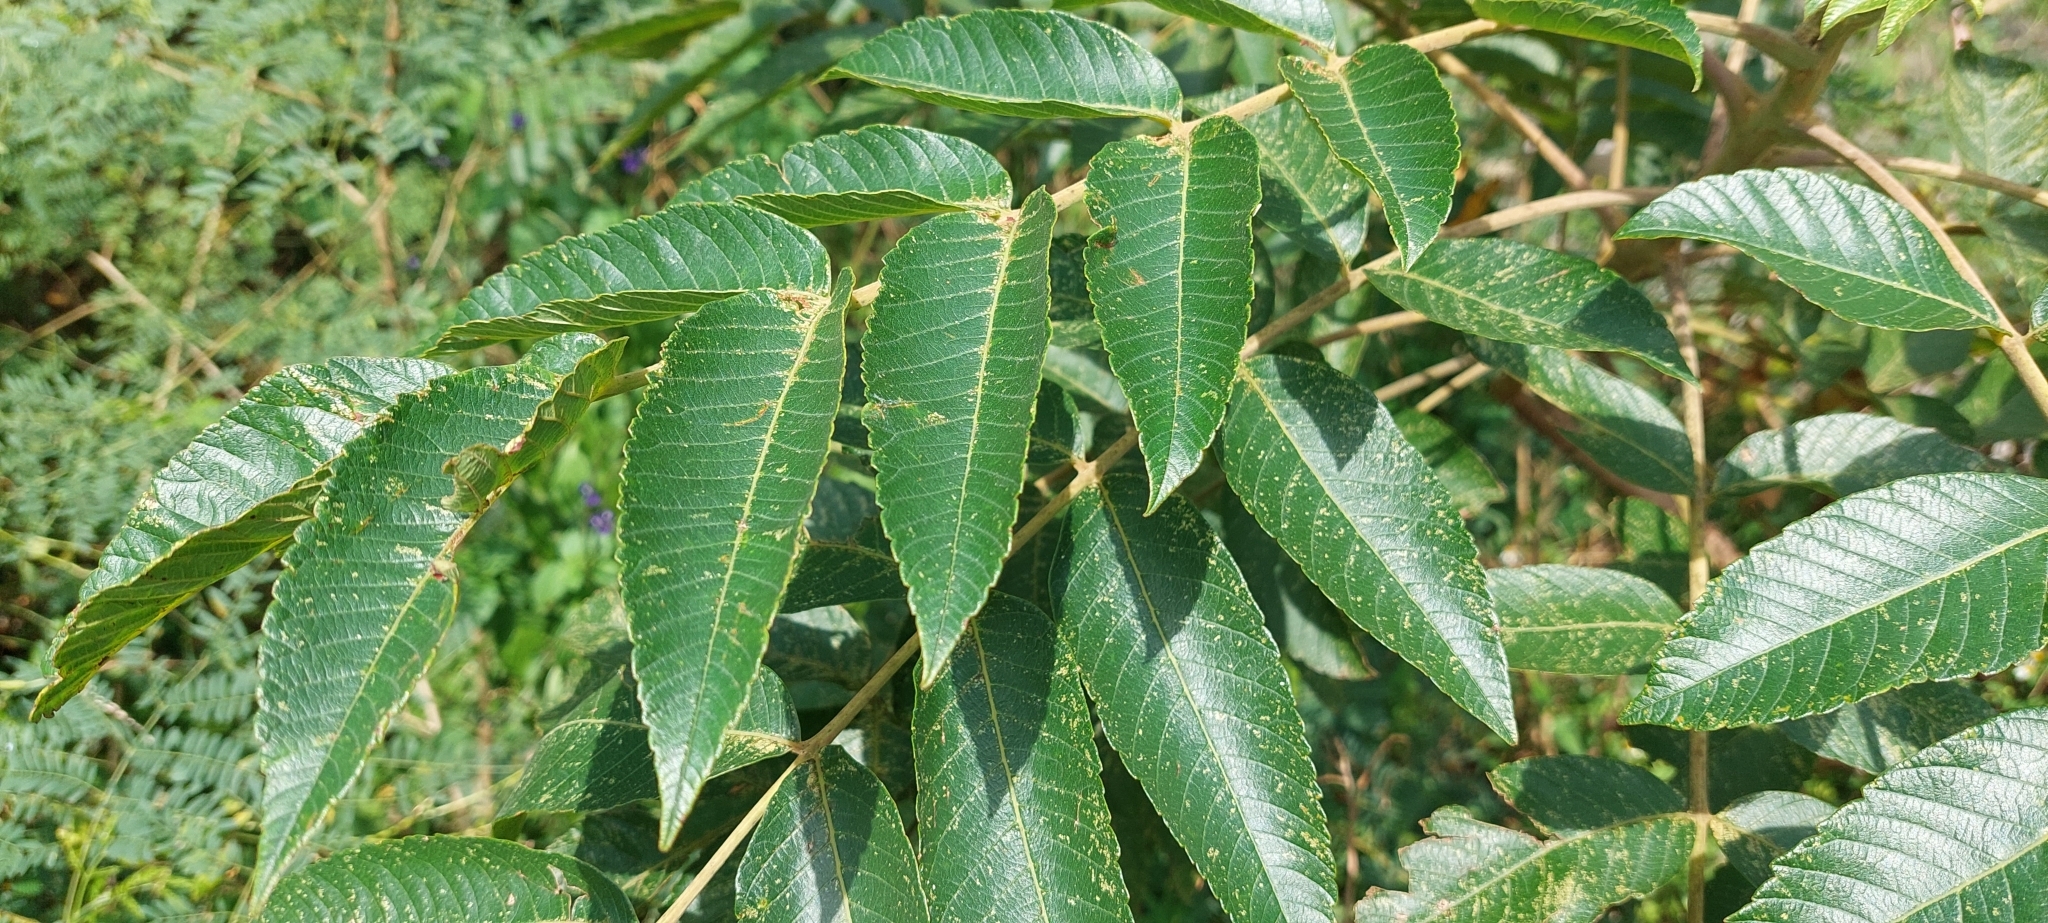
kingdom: Plantae
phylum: Tracheophyta
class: Magnoliopsida
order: Sapindales
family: Anacardiaceae
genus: Rhus
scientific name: Rhus chinensis
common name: Chinese gall
